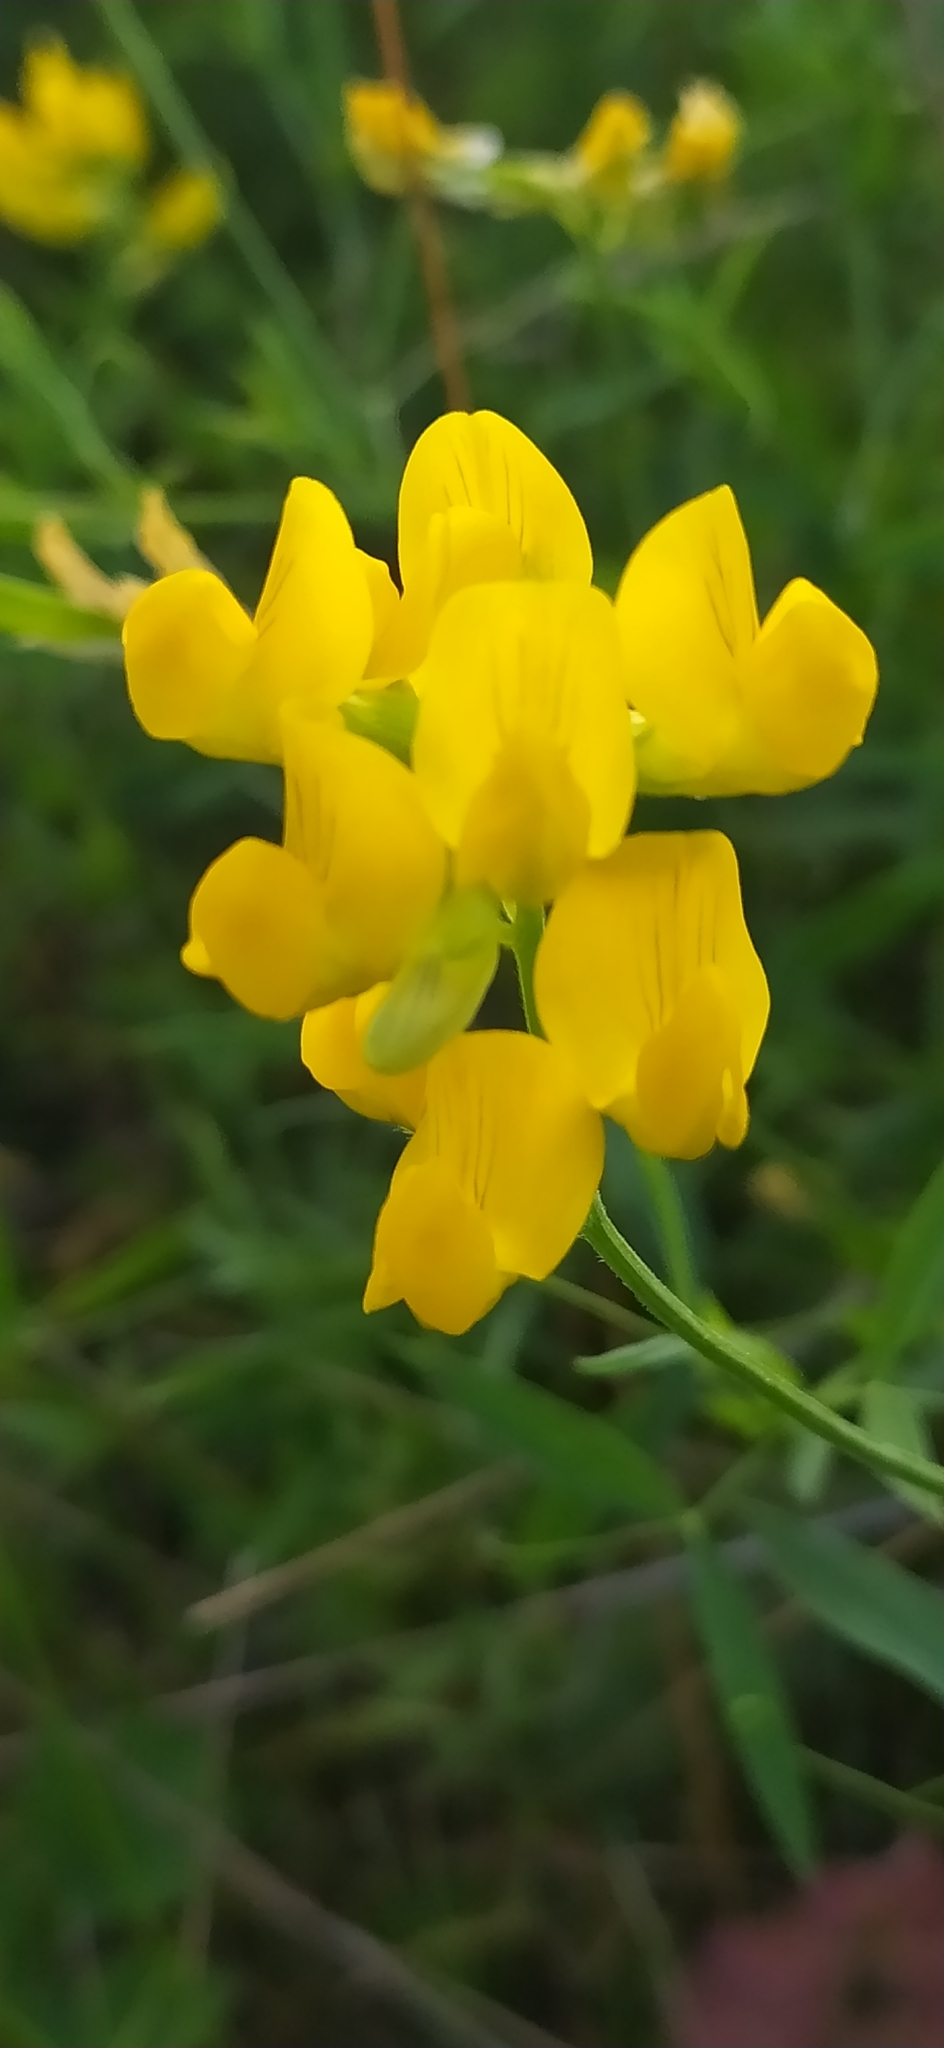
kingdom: Plantae
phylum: Tracheophyta
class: Magnoliopsida
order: Fabales
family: Fabaceae
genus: Lathyrus
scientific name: Lathyrus pratensis
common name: Meadow vetchling
